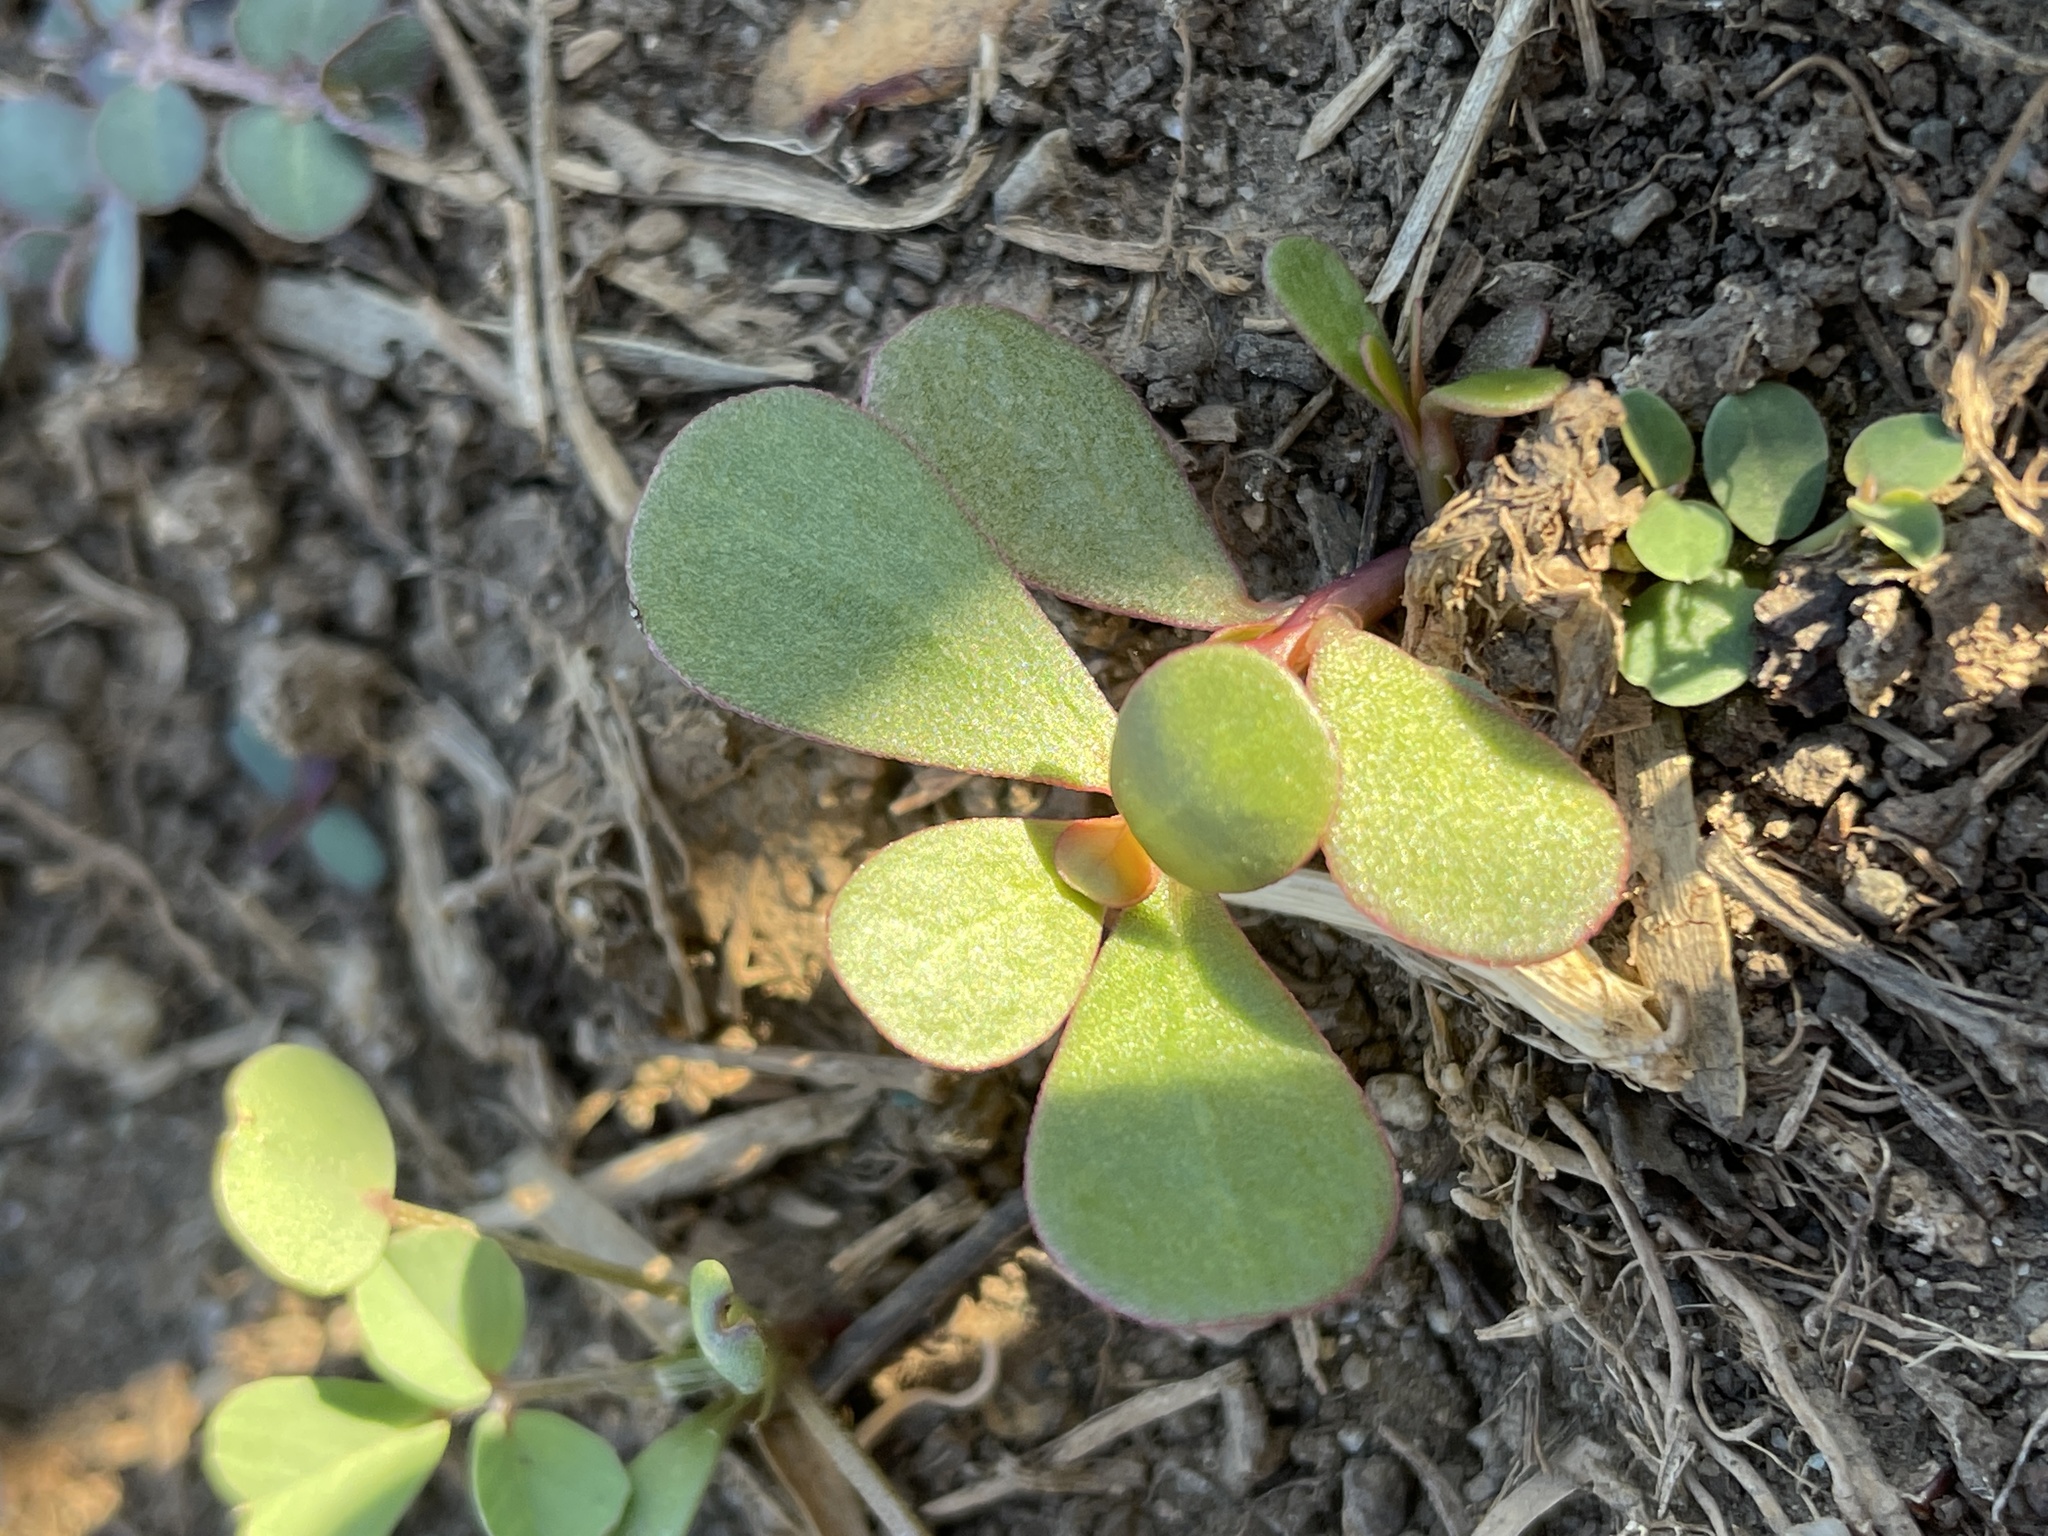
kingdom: Plantae
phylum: Tracheophyta
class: Magnoliopsida
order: Caryophyllales
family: Portulacaceae
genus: Portulaca
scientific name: Portulaca oleracea
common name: Common purslane
